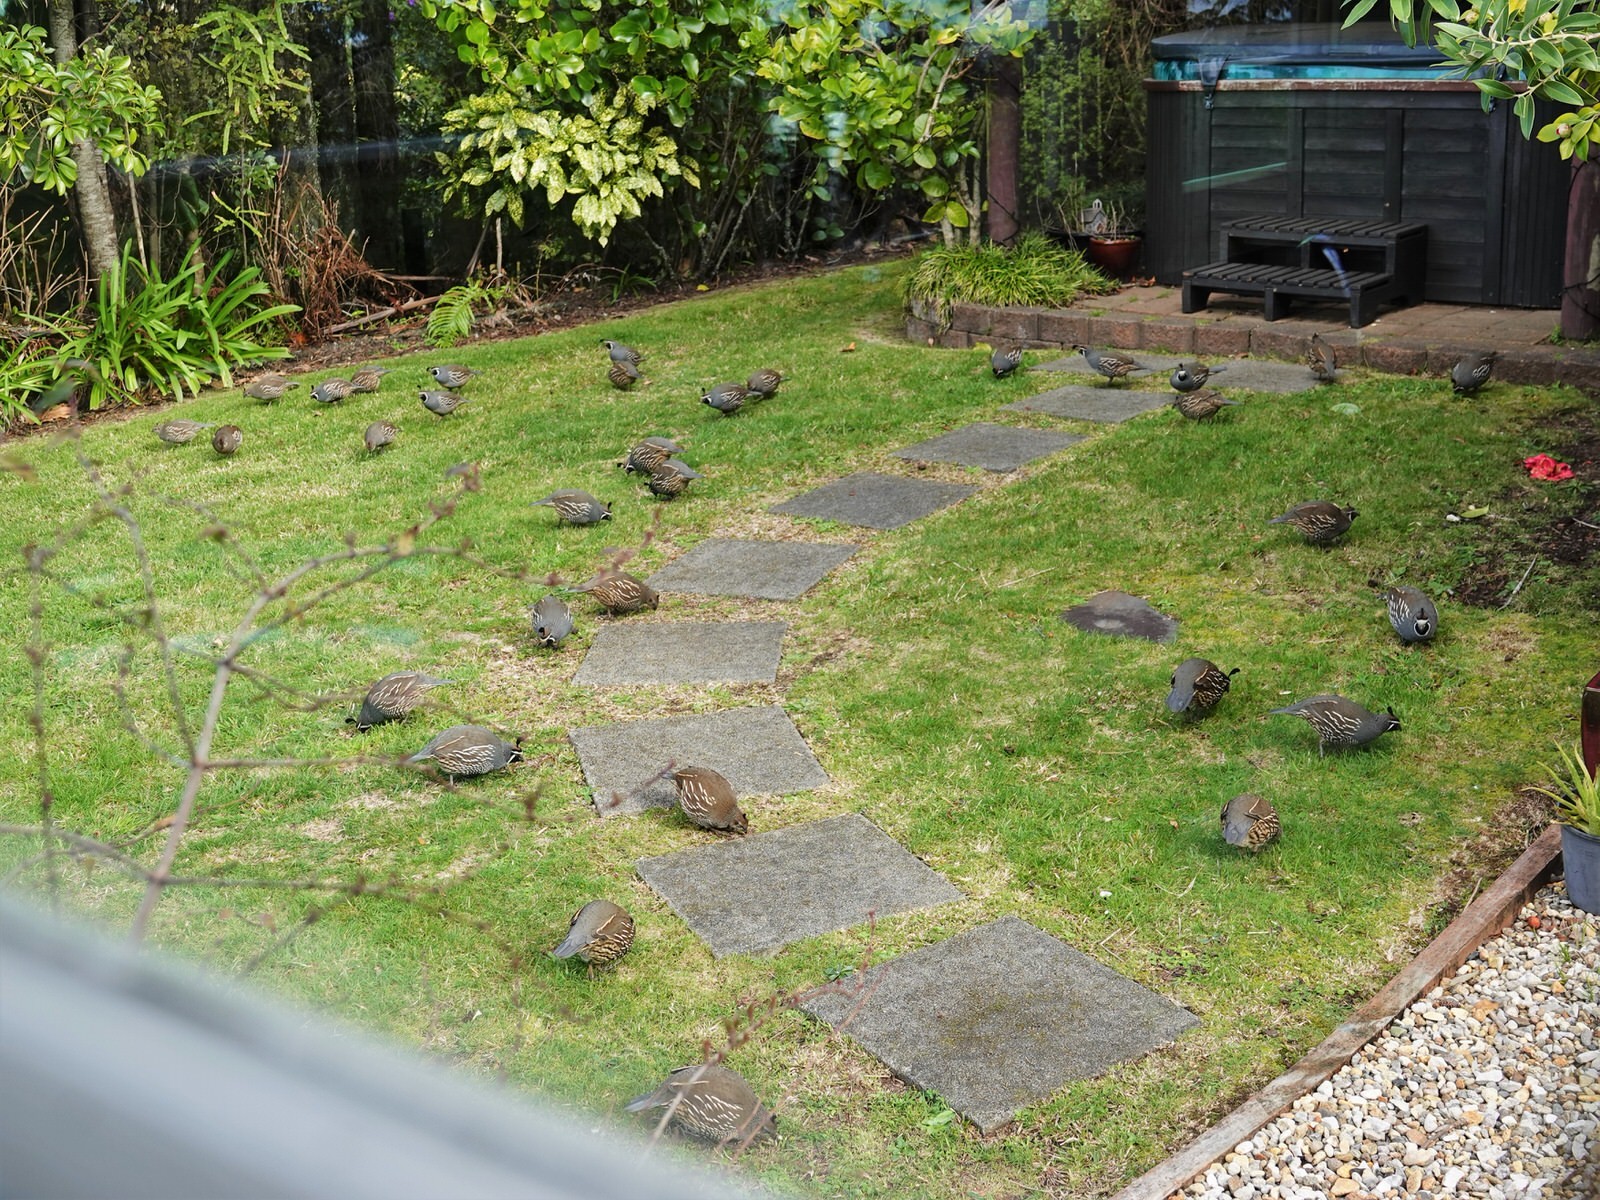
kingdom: Animalia
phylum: Chordata
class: Aves
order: Galliformes
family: Odontophoridae
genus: Callipepla
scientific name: Callipepla californica
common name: California quail
